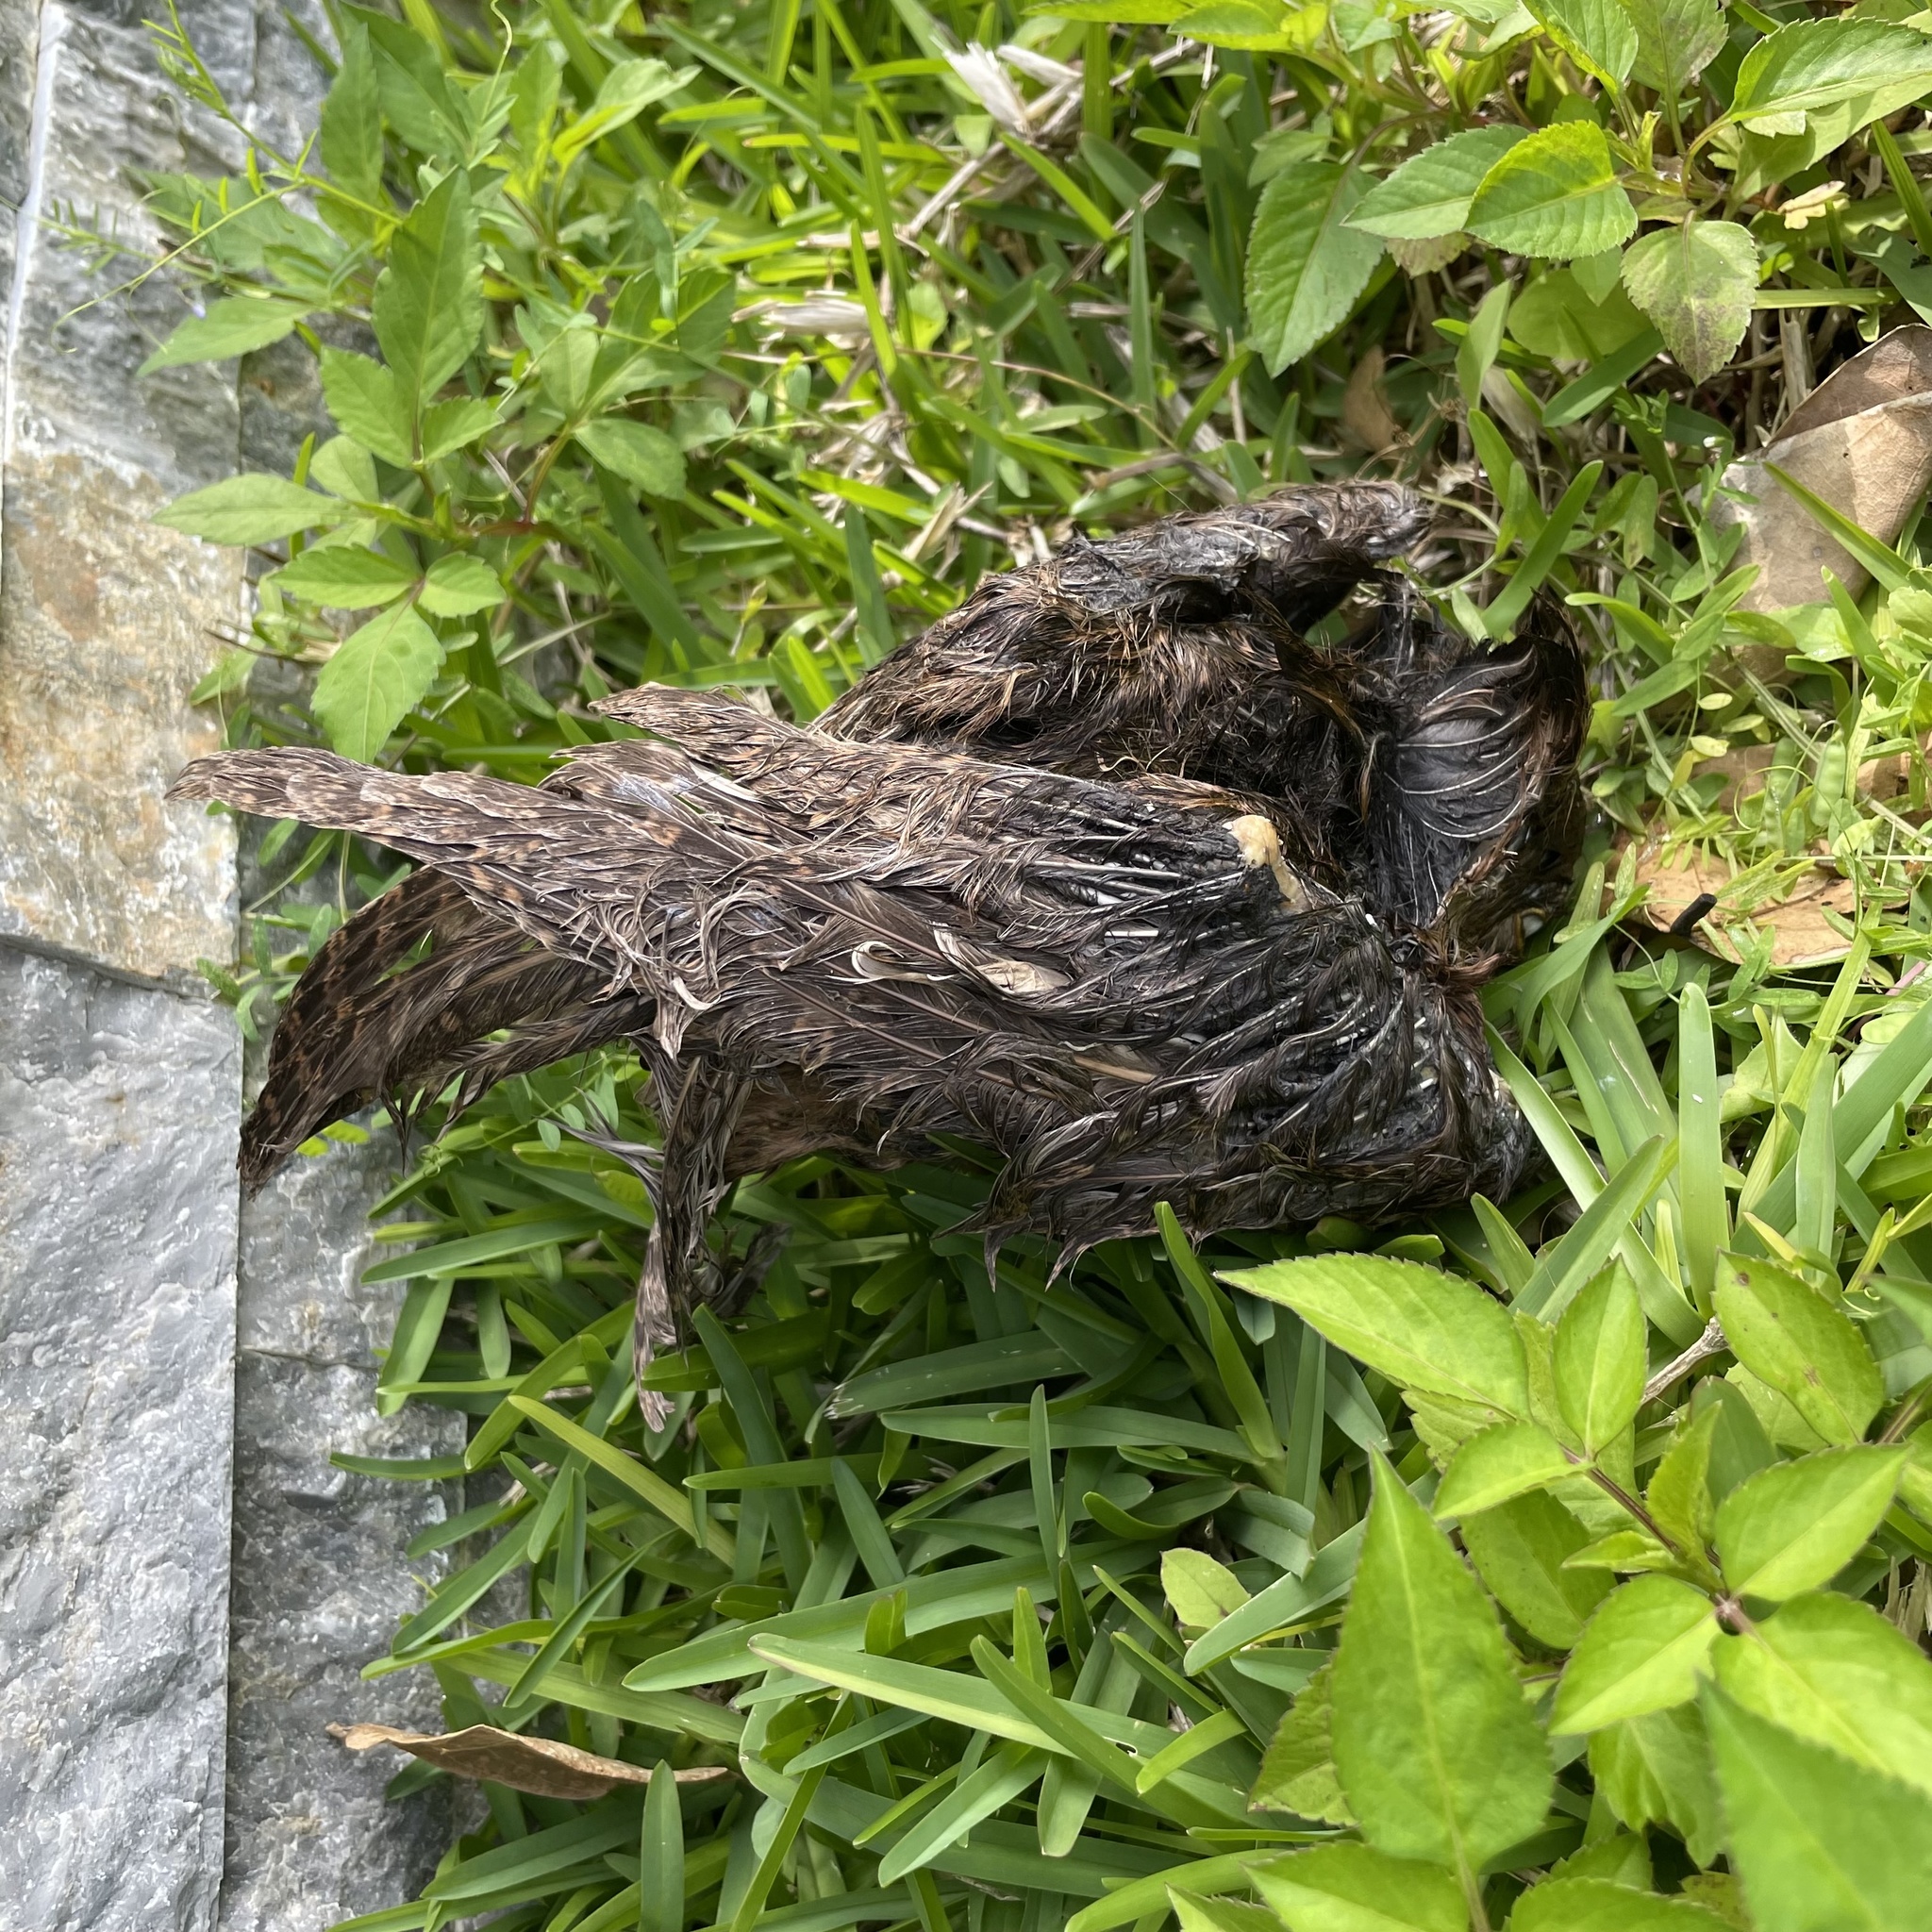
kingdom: Animalia
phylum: Chordata
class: Aves
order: Strigiformes
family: Strigidae
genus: Otus
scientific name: Otus semitorques
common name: Japanese scops owl
